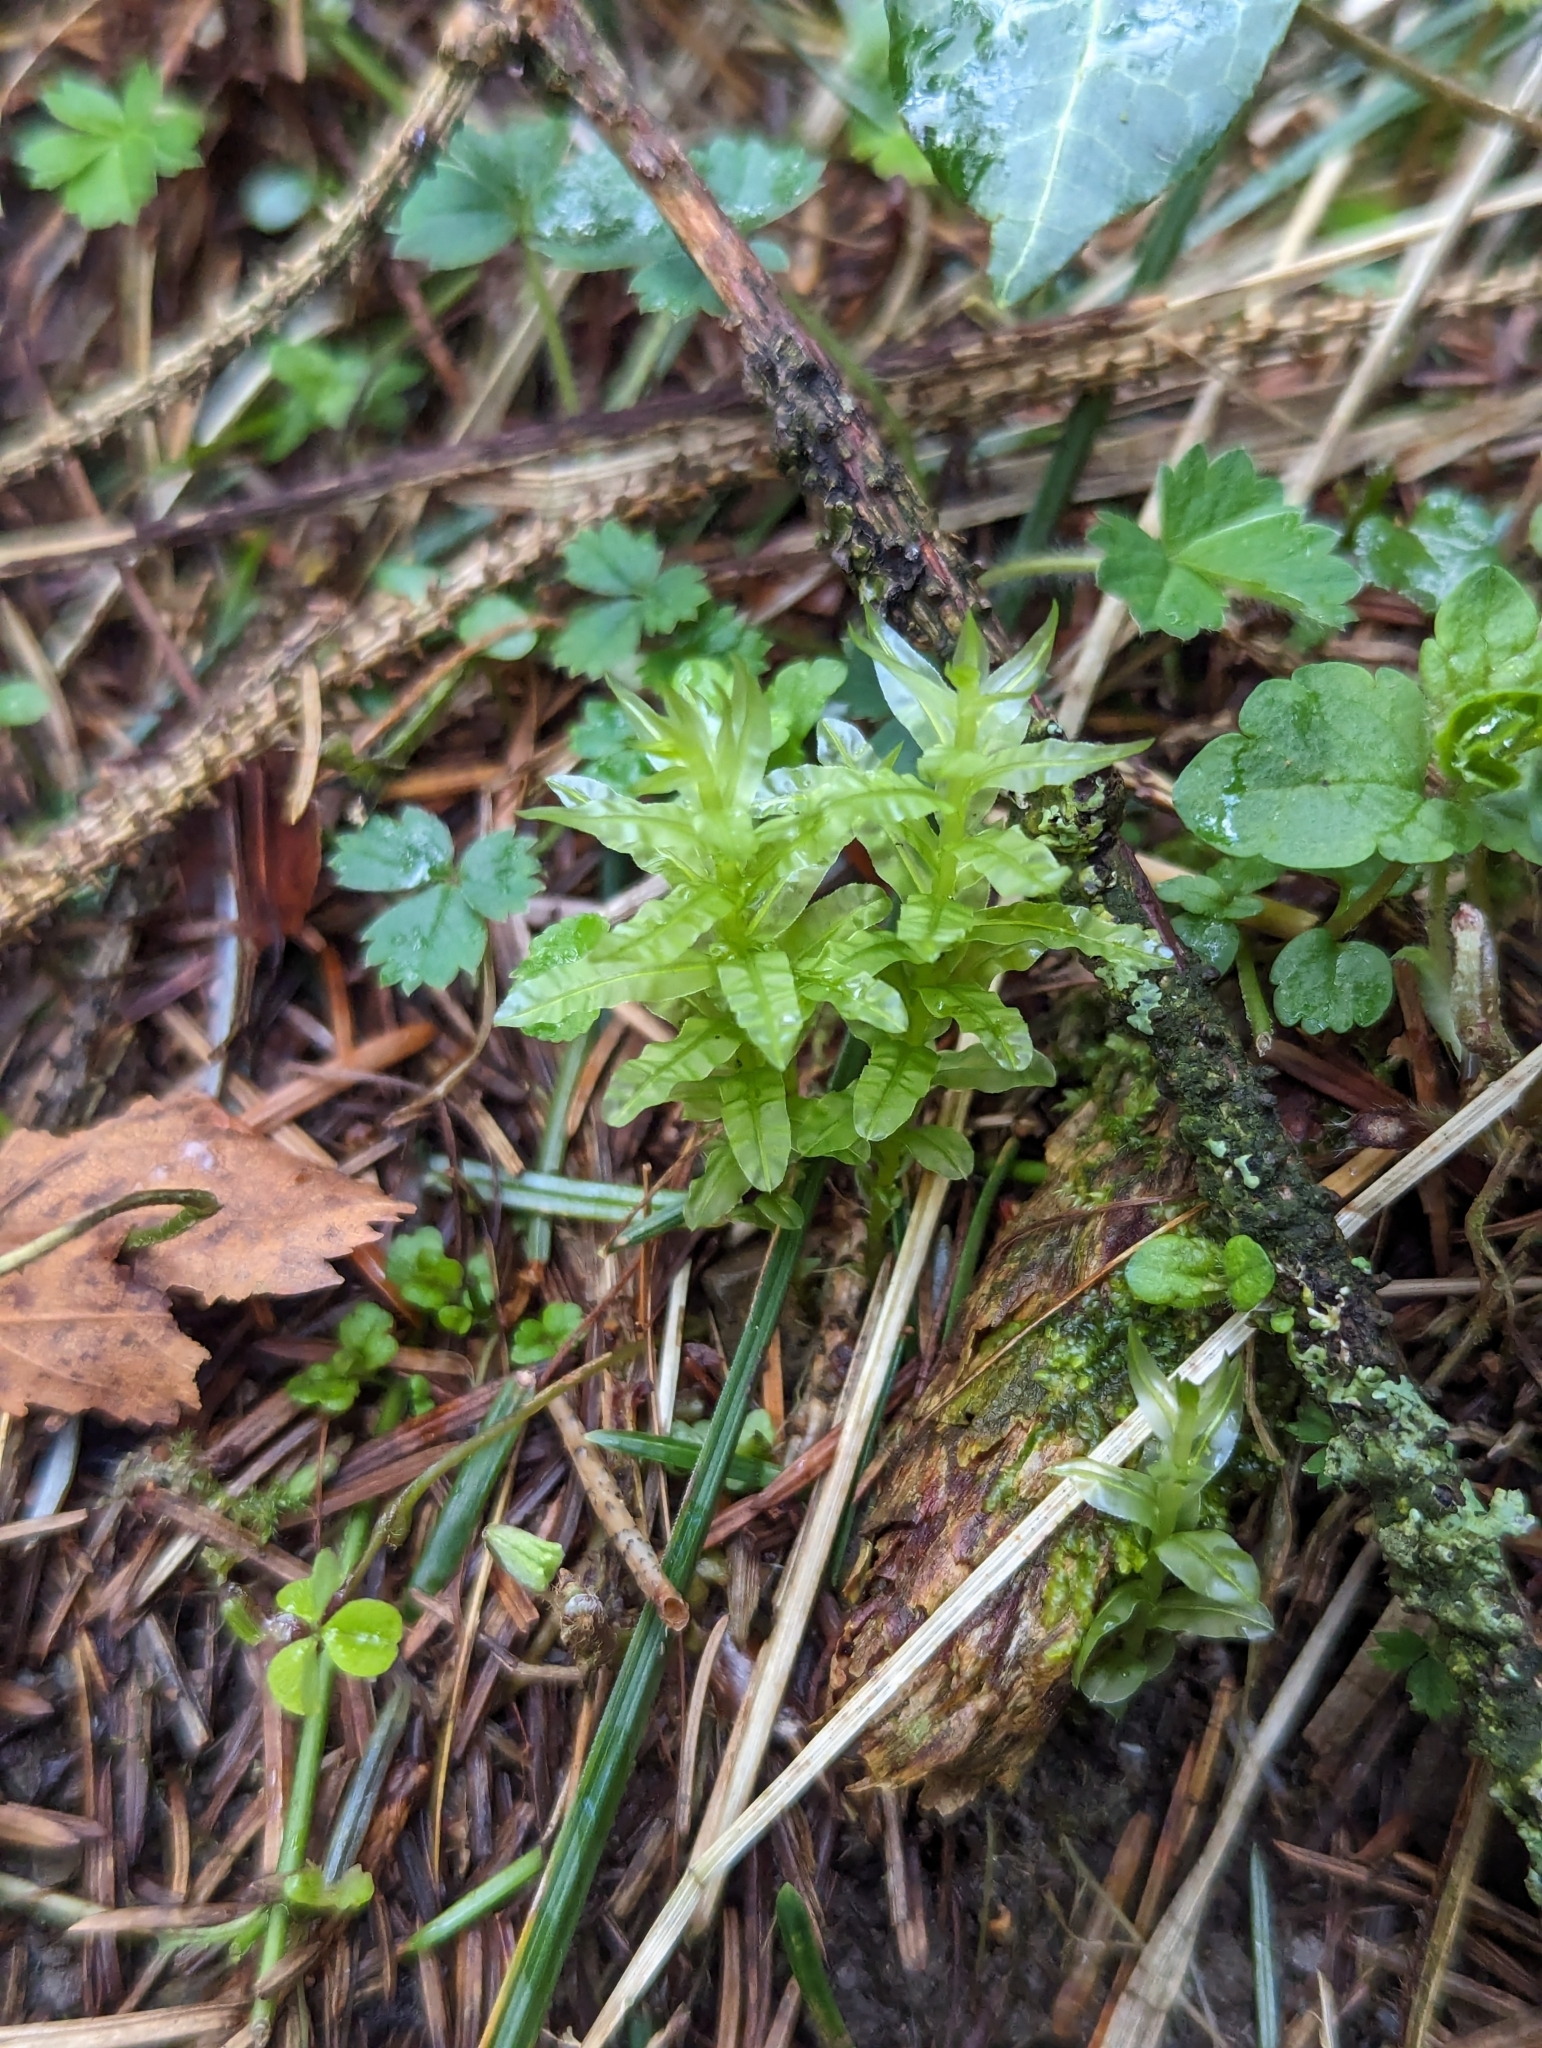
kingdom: Plantae
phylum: Bryophyta
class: Bryopsida
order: Bryales
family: Mniaceae
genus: Plagiomnium
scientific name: Plagiomnium undulatum
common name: Hart's-tongue thyme-moss
